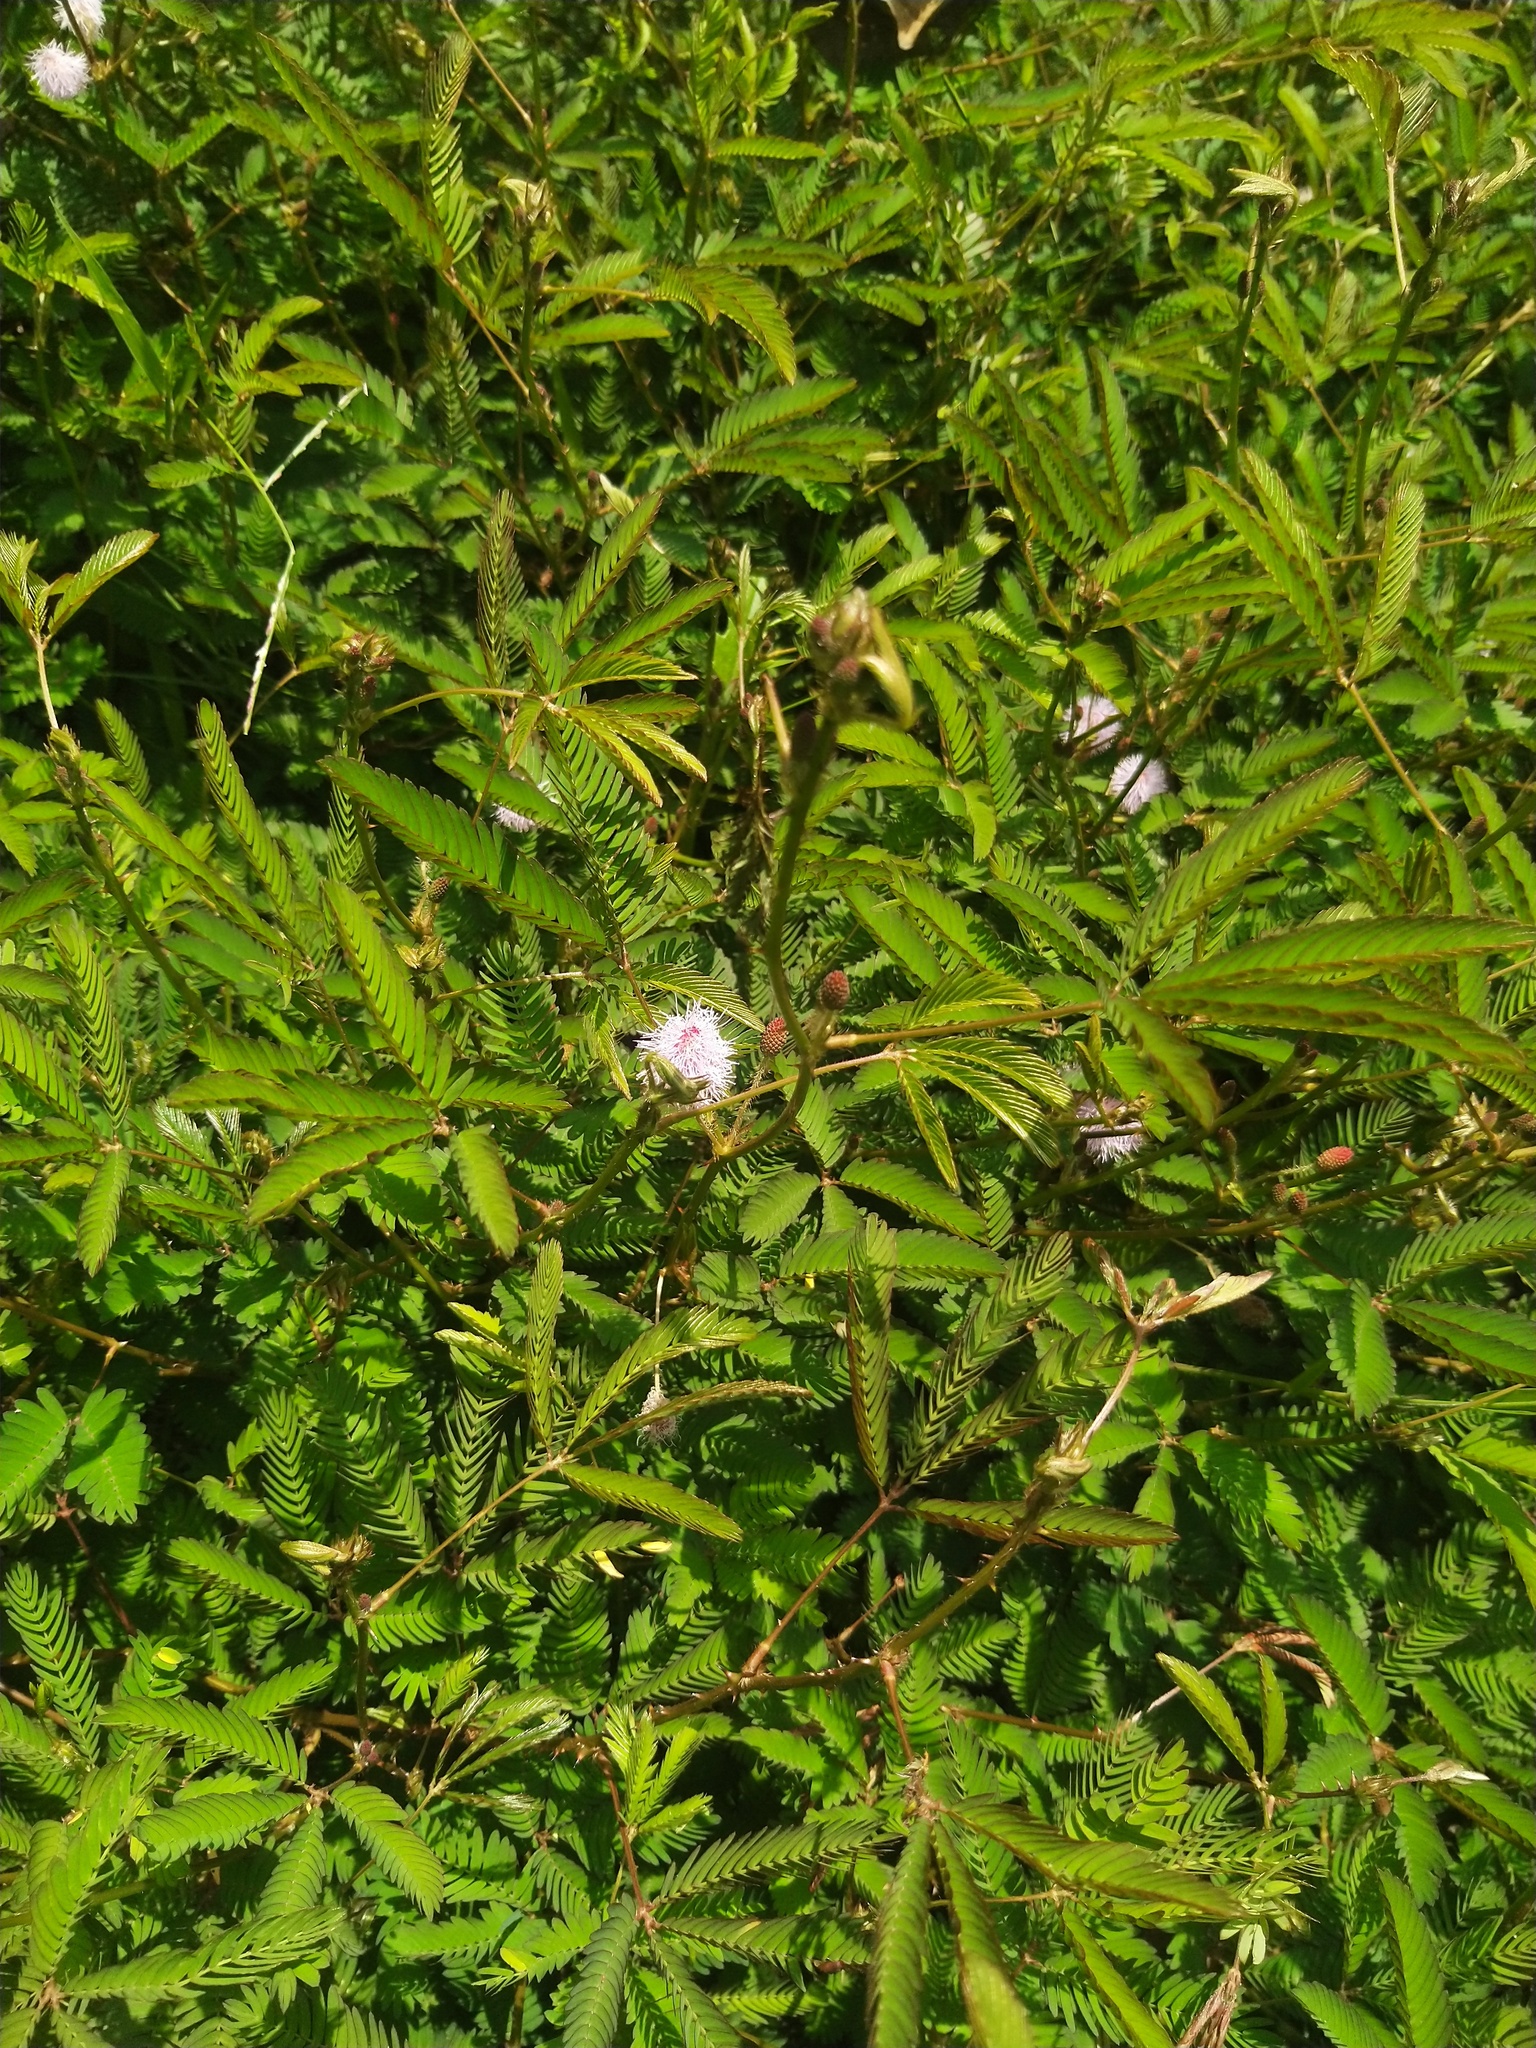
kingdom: Plantae
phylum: Tracheophyta
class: Magnoliopsida
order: Fabales
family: Fabaceae
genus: Mimosa
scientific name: Mimosa pudica
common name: Sensitive plant
